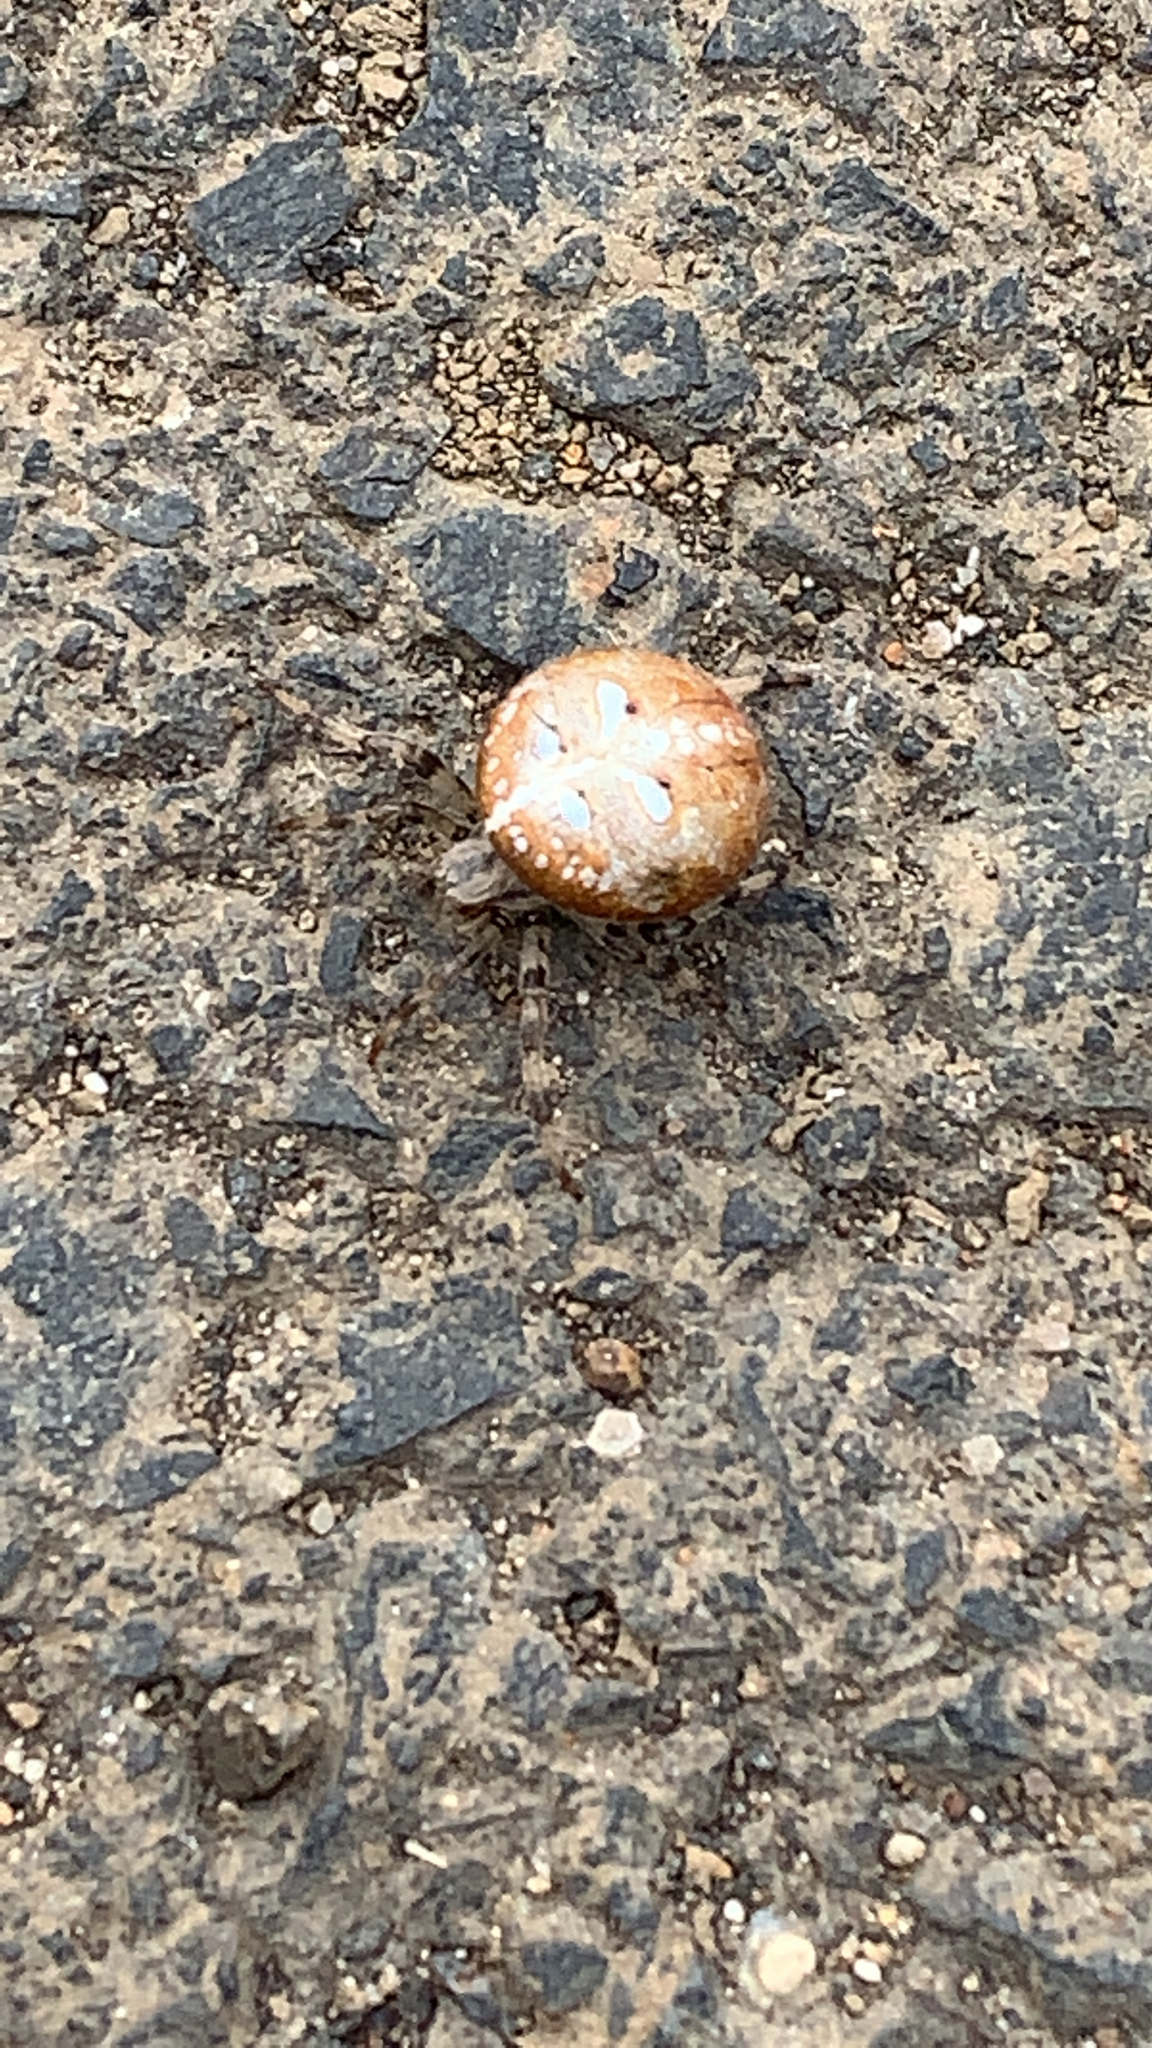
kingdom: Animalia
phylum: Arthropoda
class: Arachnida
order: Araneae
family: Araneidae
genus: Araneus
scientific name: Araneus quadratus
